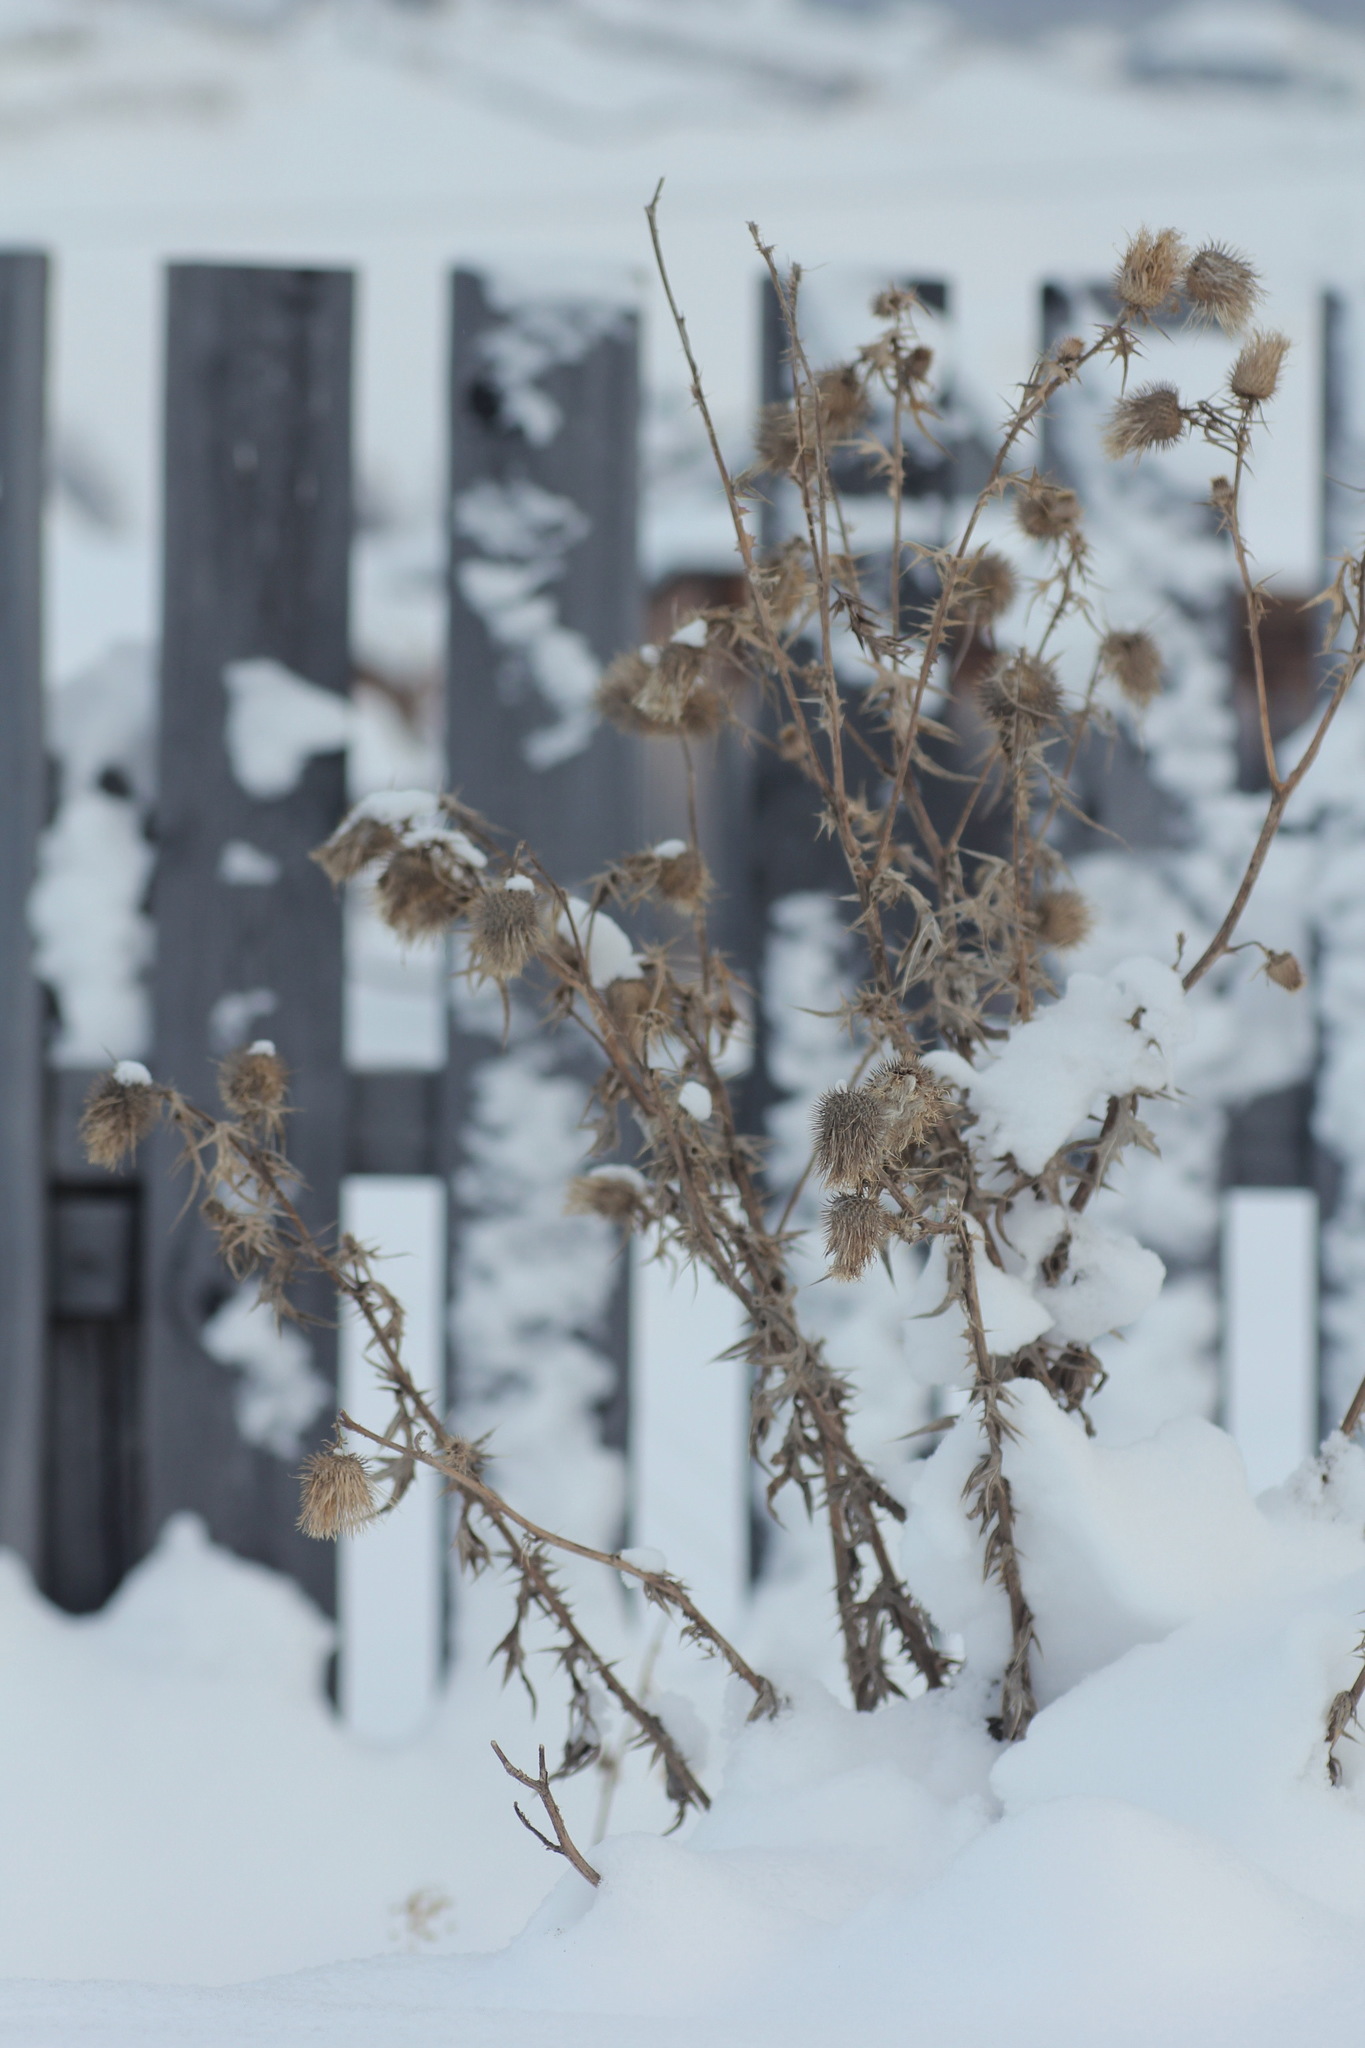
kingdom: Plantae
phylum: Tracheophyta
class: Magnoliopsida
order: Asterales
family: Asteraceae
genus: Cirsium
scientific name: Cirsium vulgare
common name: Bull thistle
